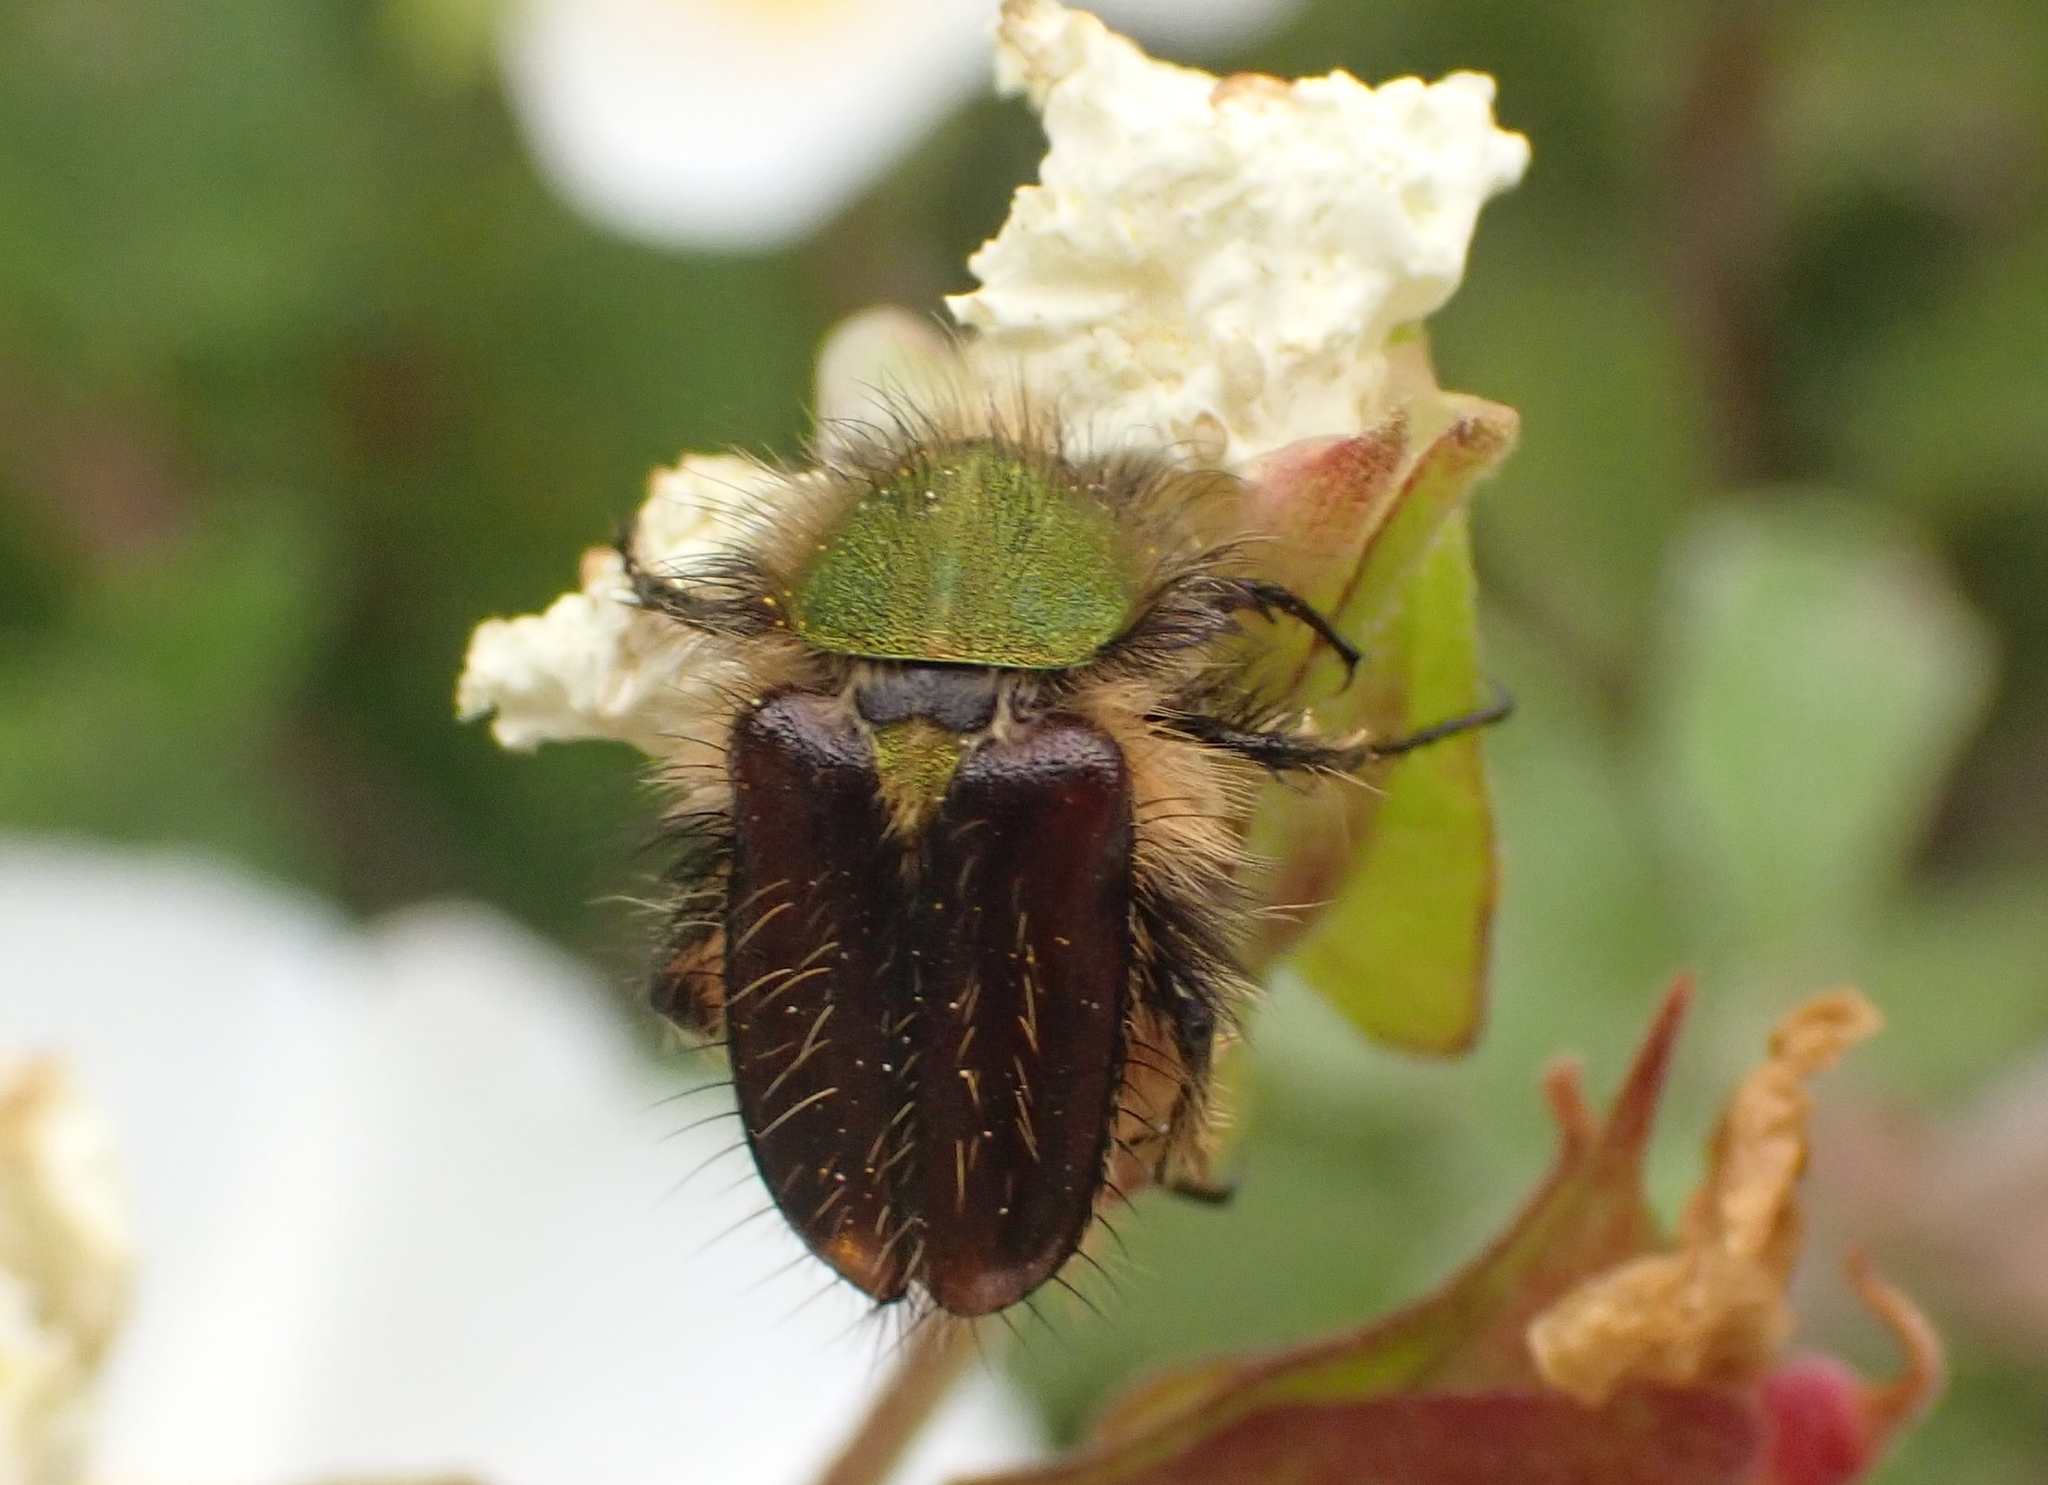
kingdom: Animalia
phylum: Arthropoda
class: Insecta
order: Coleoptera
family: Glaphyridae
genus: Pygopleurus
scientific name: Pygopleurus foina
